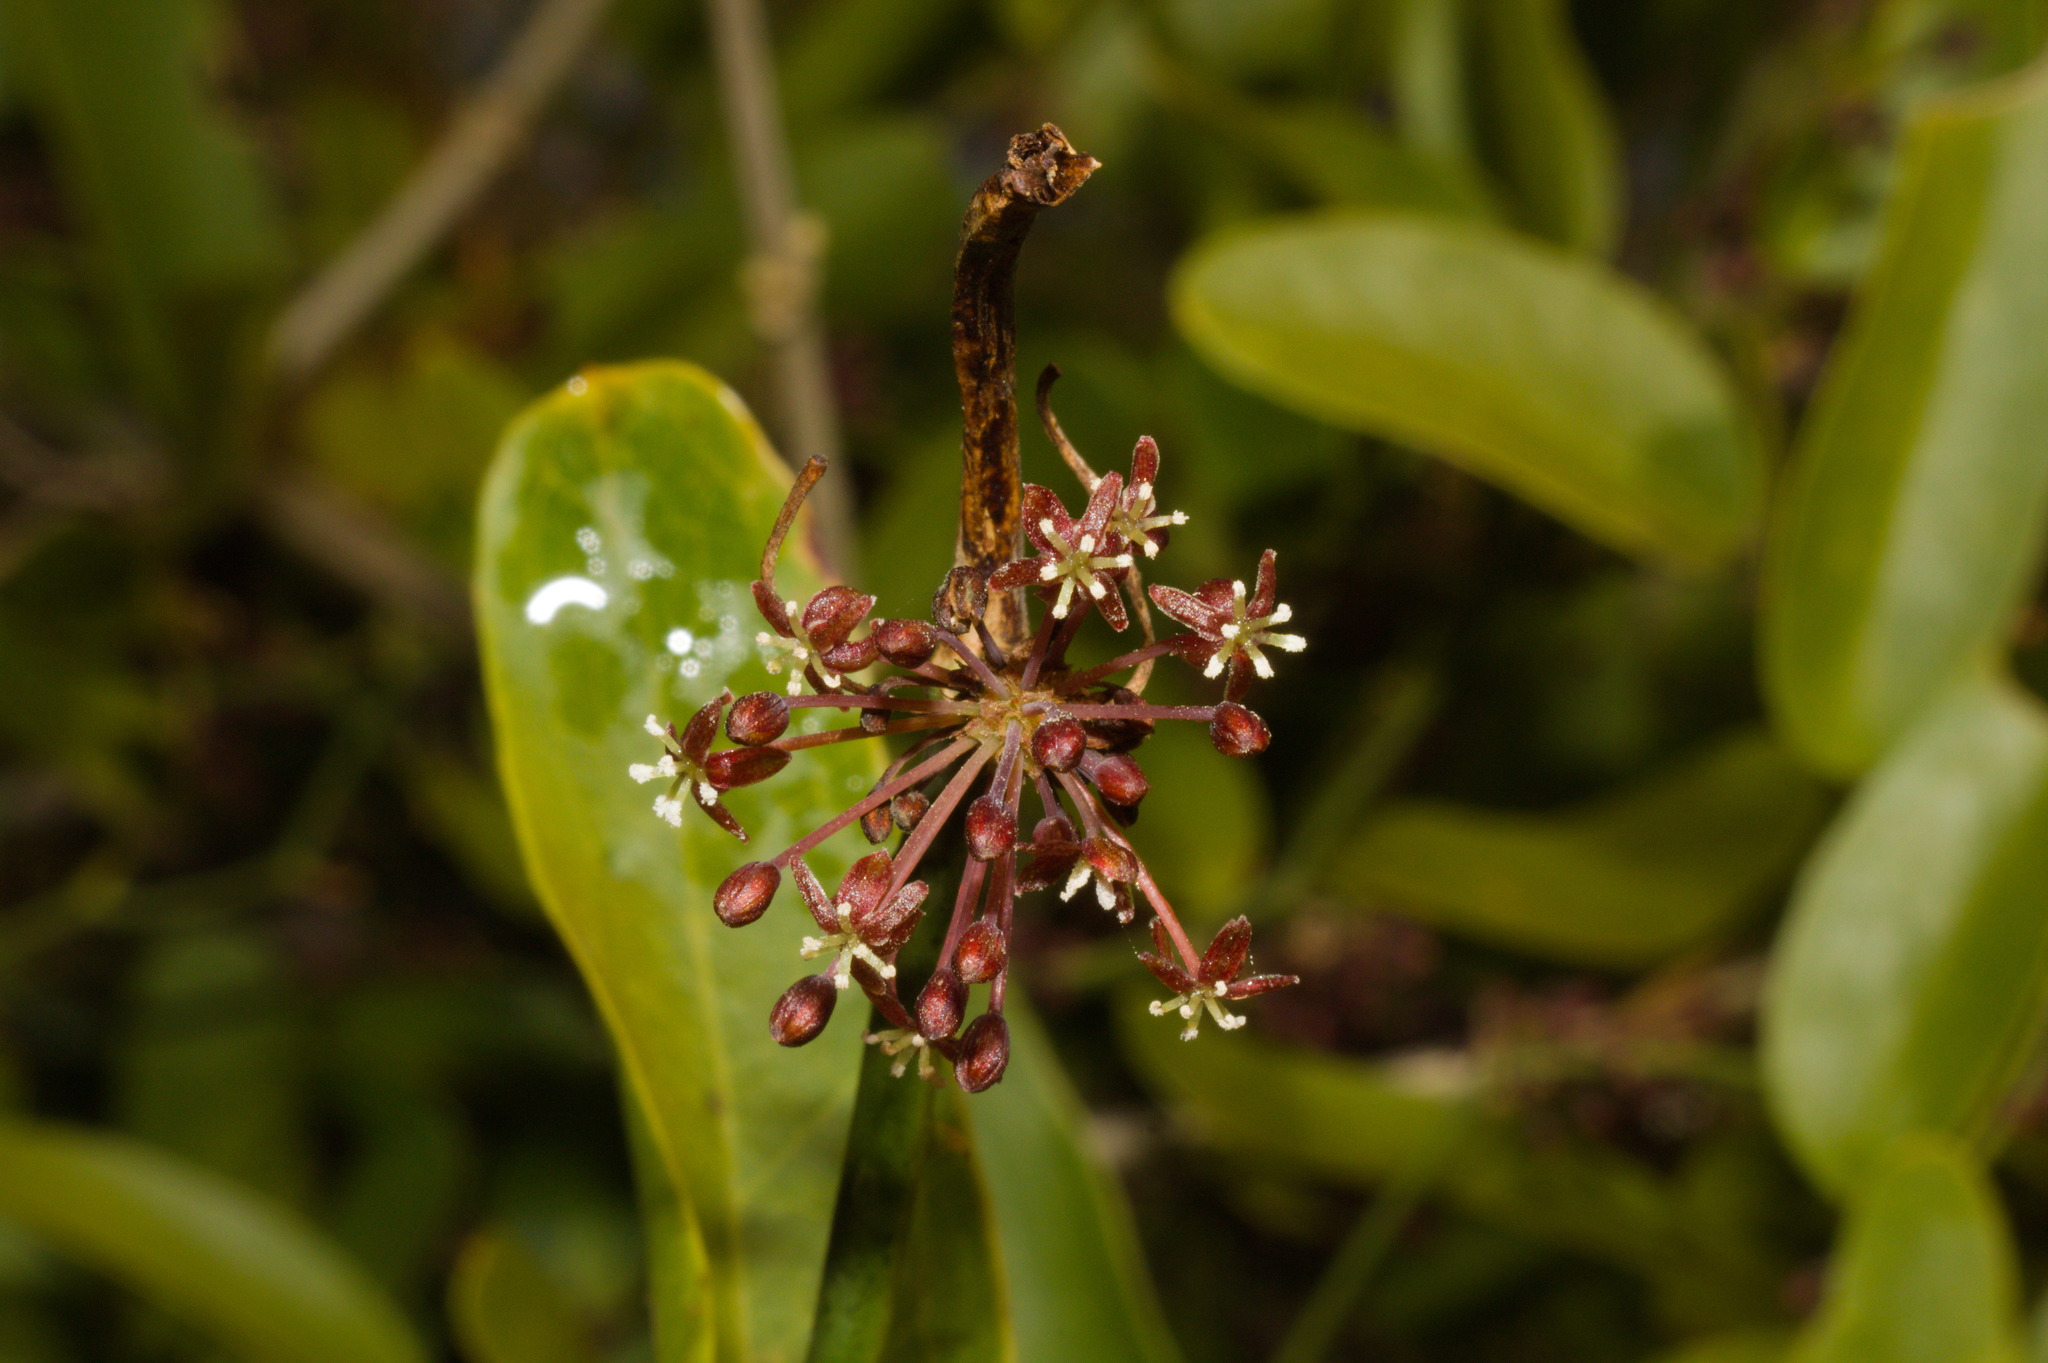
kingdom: Plantae
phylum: Tracheophyta
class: Liliopsida
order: Liliales
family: Smilacaceae
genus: Smilax
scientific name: Smilax campestris
